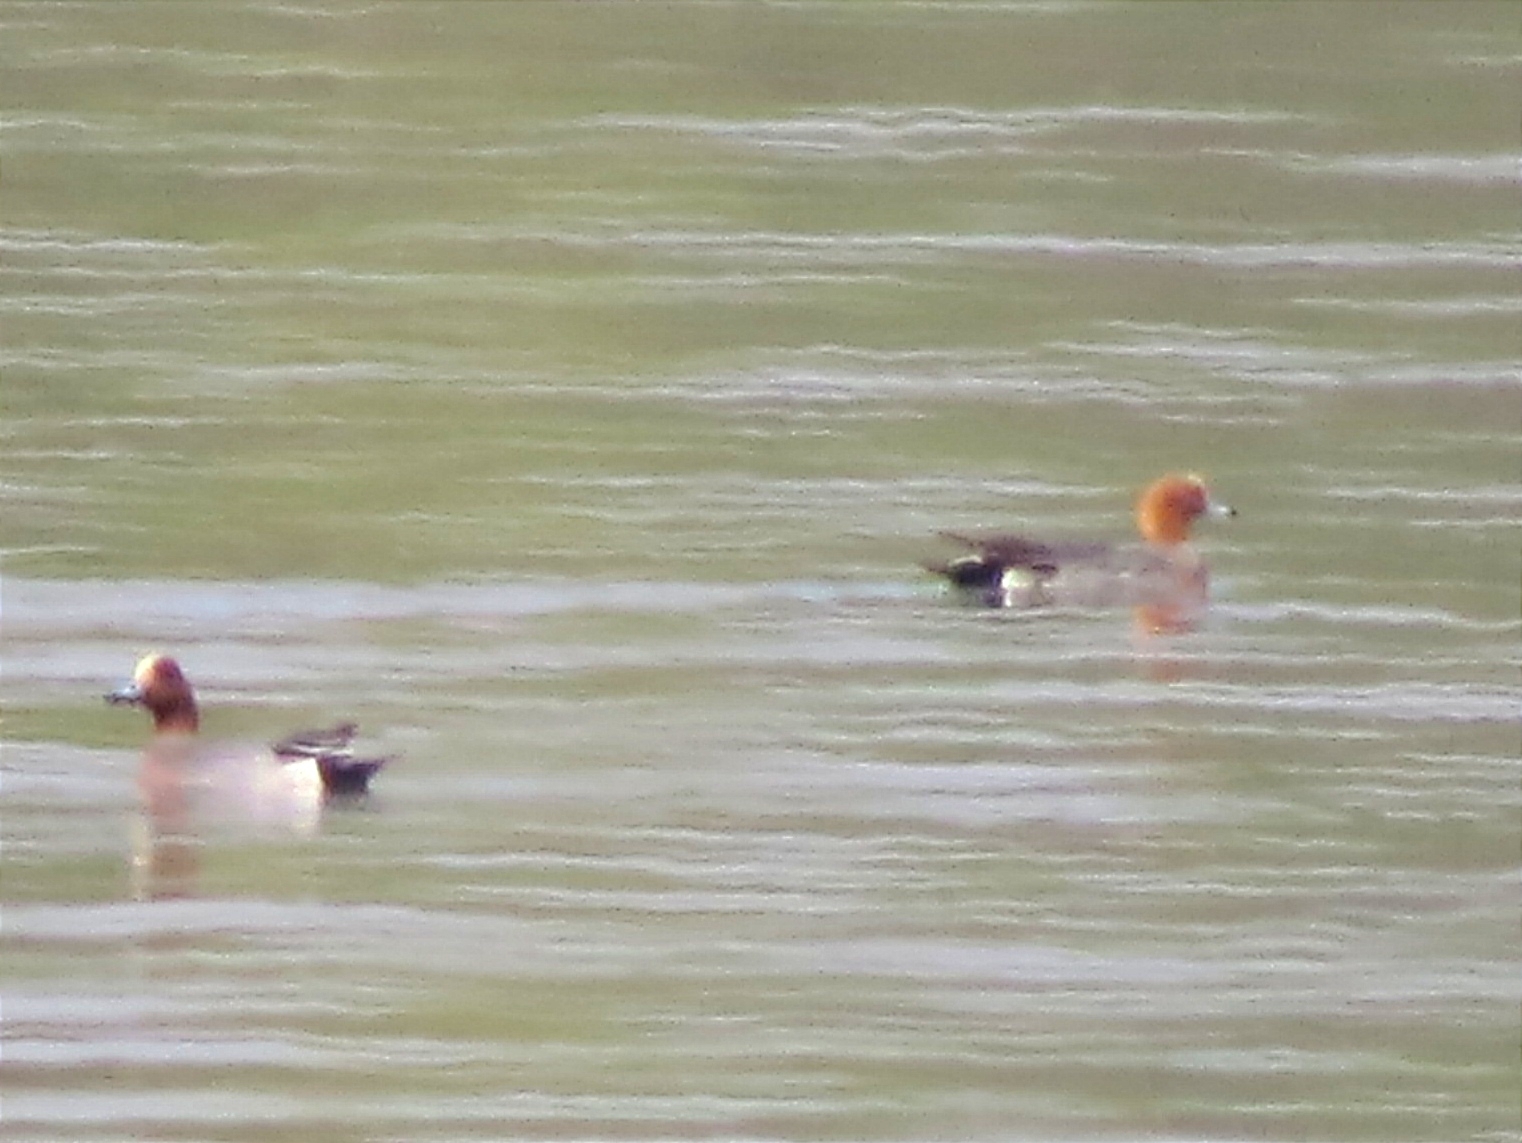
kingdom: Animalia
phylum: Chordata
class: Aves
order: Anseriformes
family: Anatidae
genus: Mareca
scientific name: Mareca penelope
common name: Eurasian wigeon
